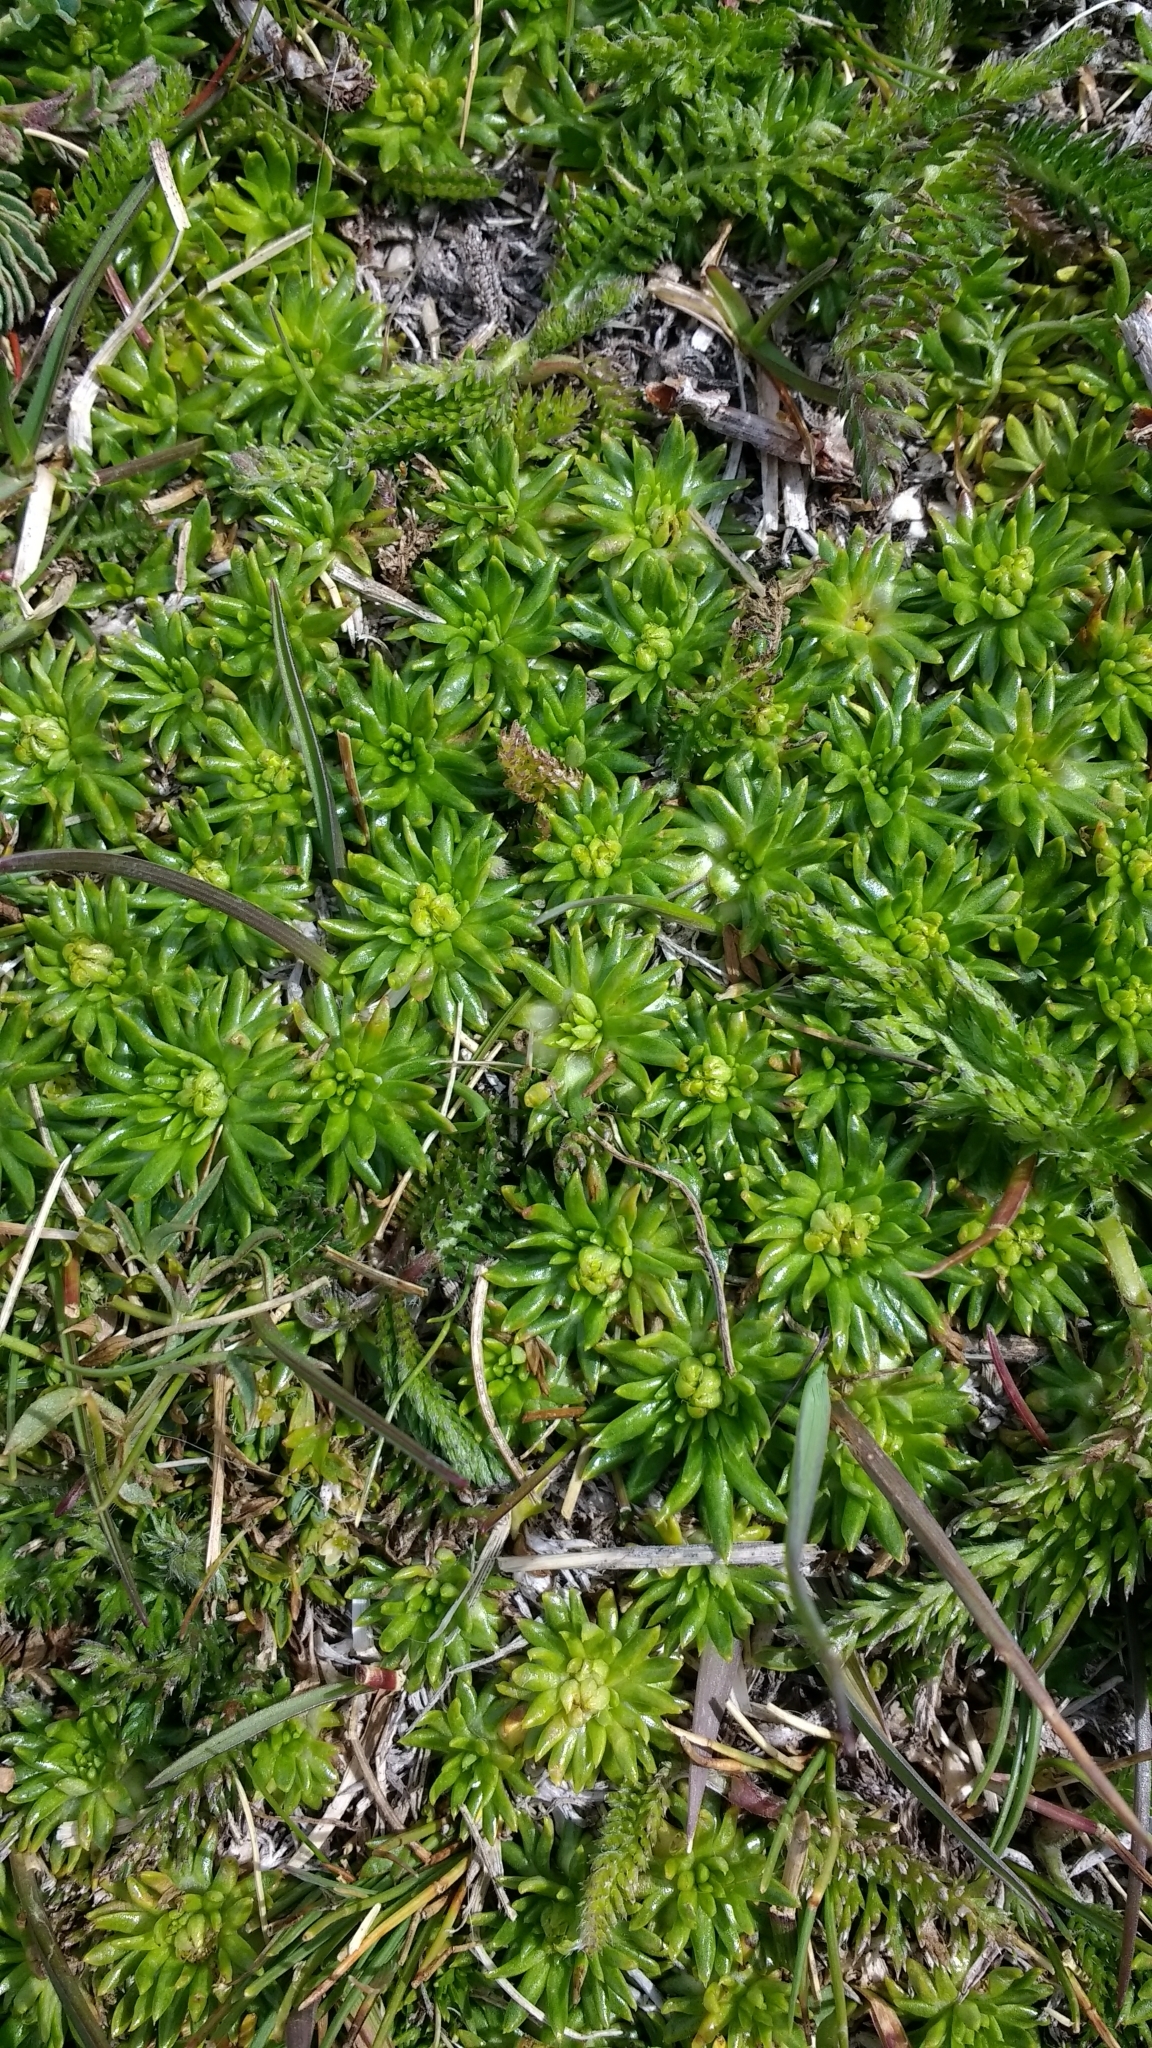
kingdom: Plantae
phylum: Tracheophyta
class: Magnoliopsida
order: Apiales
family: Apiaceae
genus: Azorella
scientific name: Azorella trifurcata
